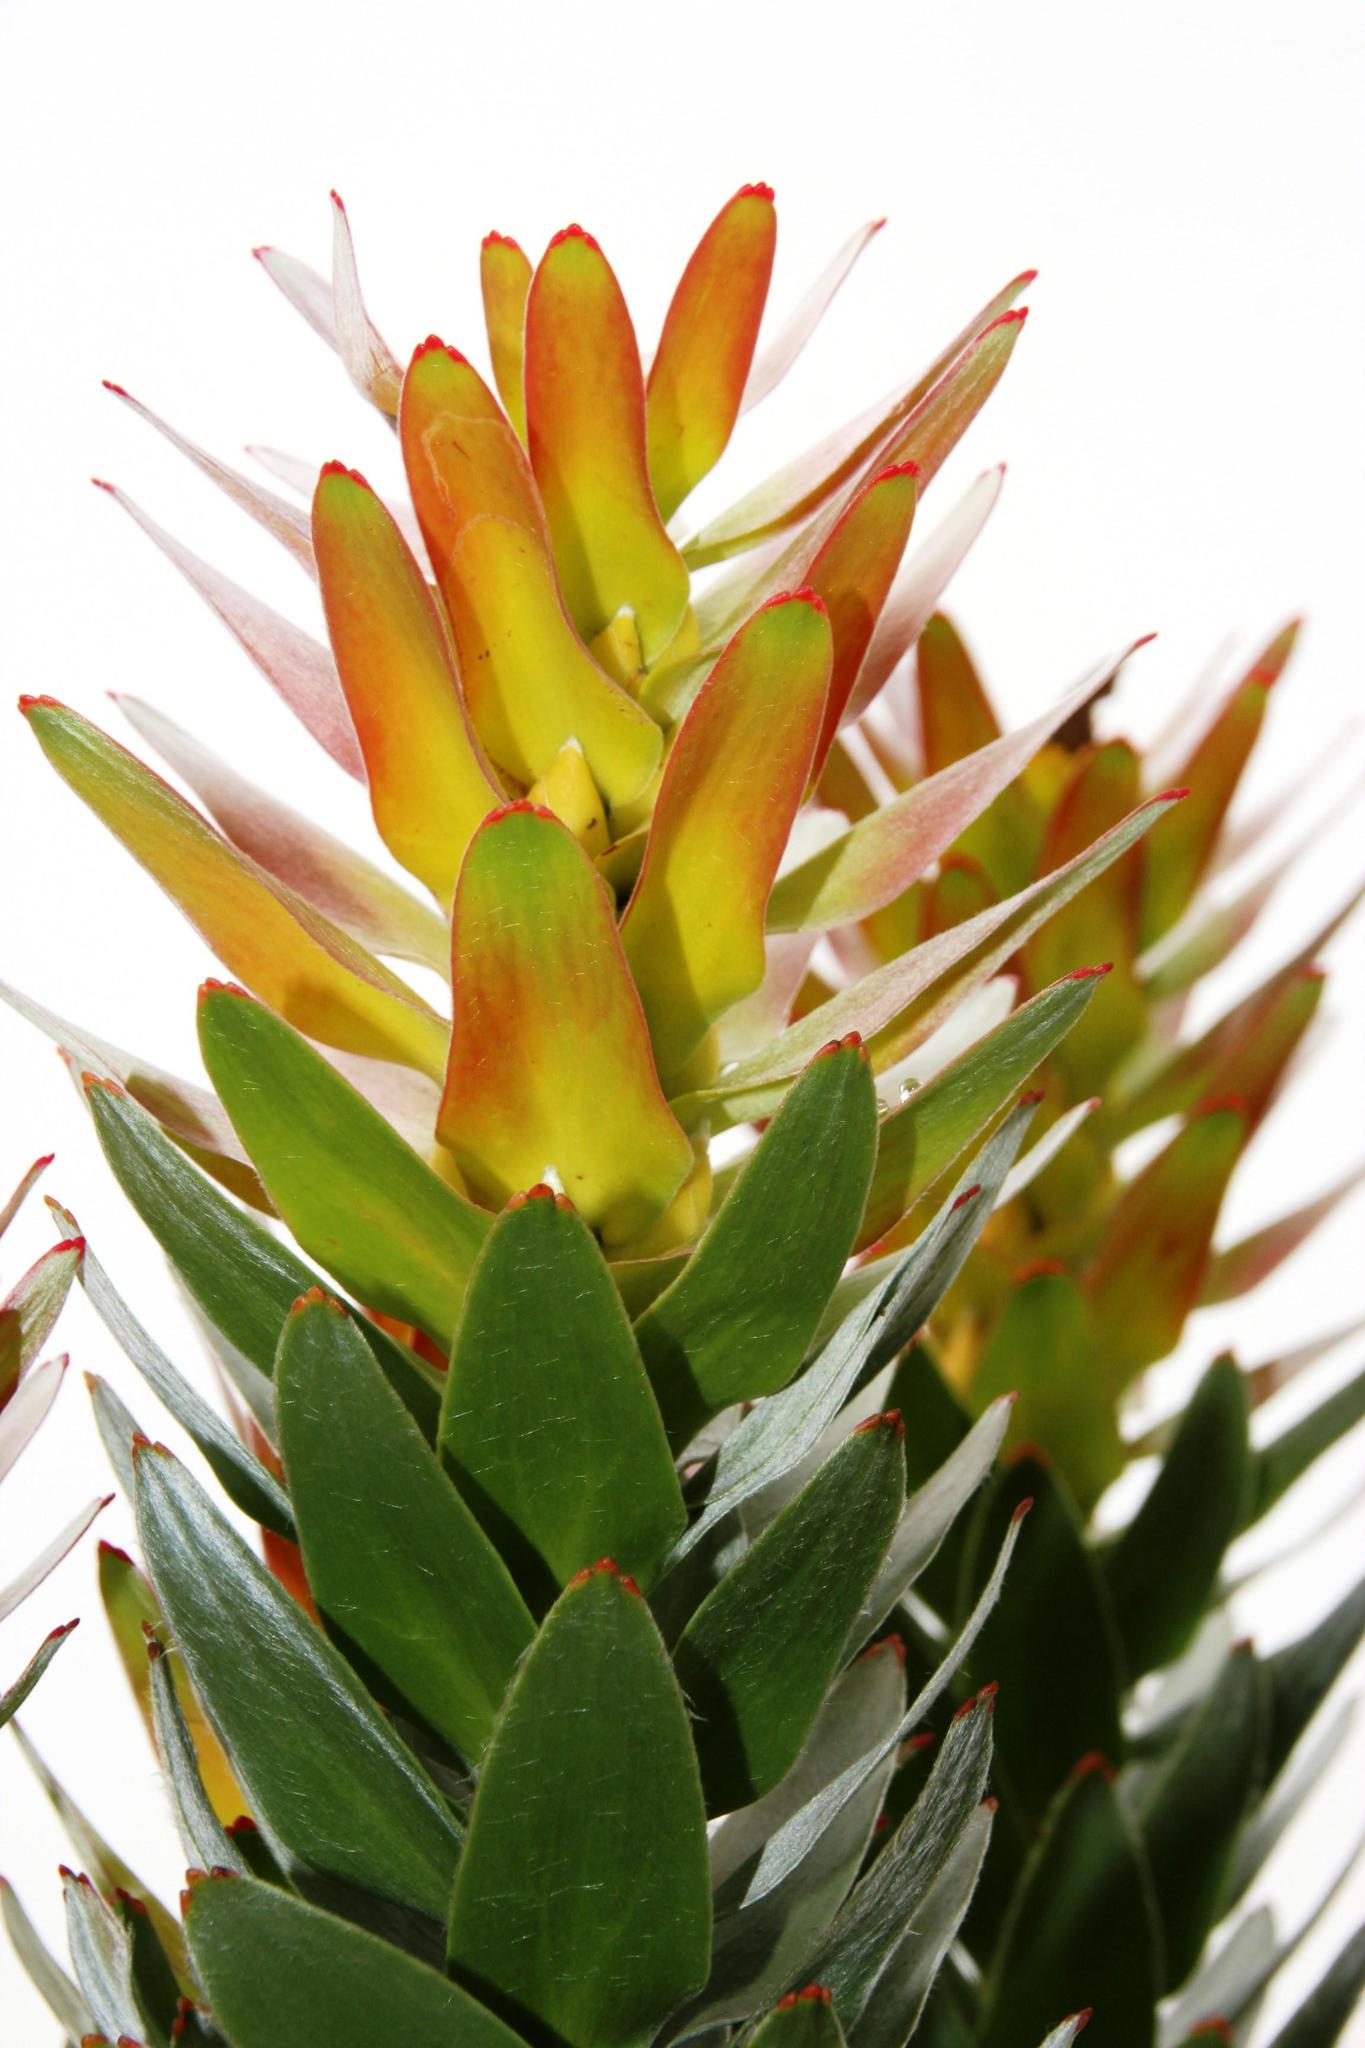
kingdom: Plantae
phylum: Tracheophyta
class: Magnoliopsida
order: Proteales
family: Proteaceae
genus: Mimetes
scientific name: Mimetes splendidus
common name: Splendid pagoda
